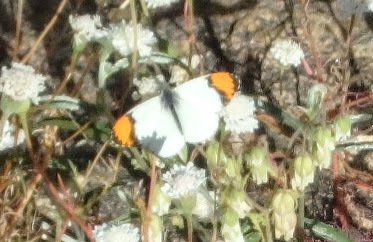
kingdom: Animalia
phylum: Arthropoda
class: Insecta
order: Lepidoptera
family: Pieridae
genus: Anthocharis
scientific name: Anthocharis sara
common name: Sara's orangetip
